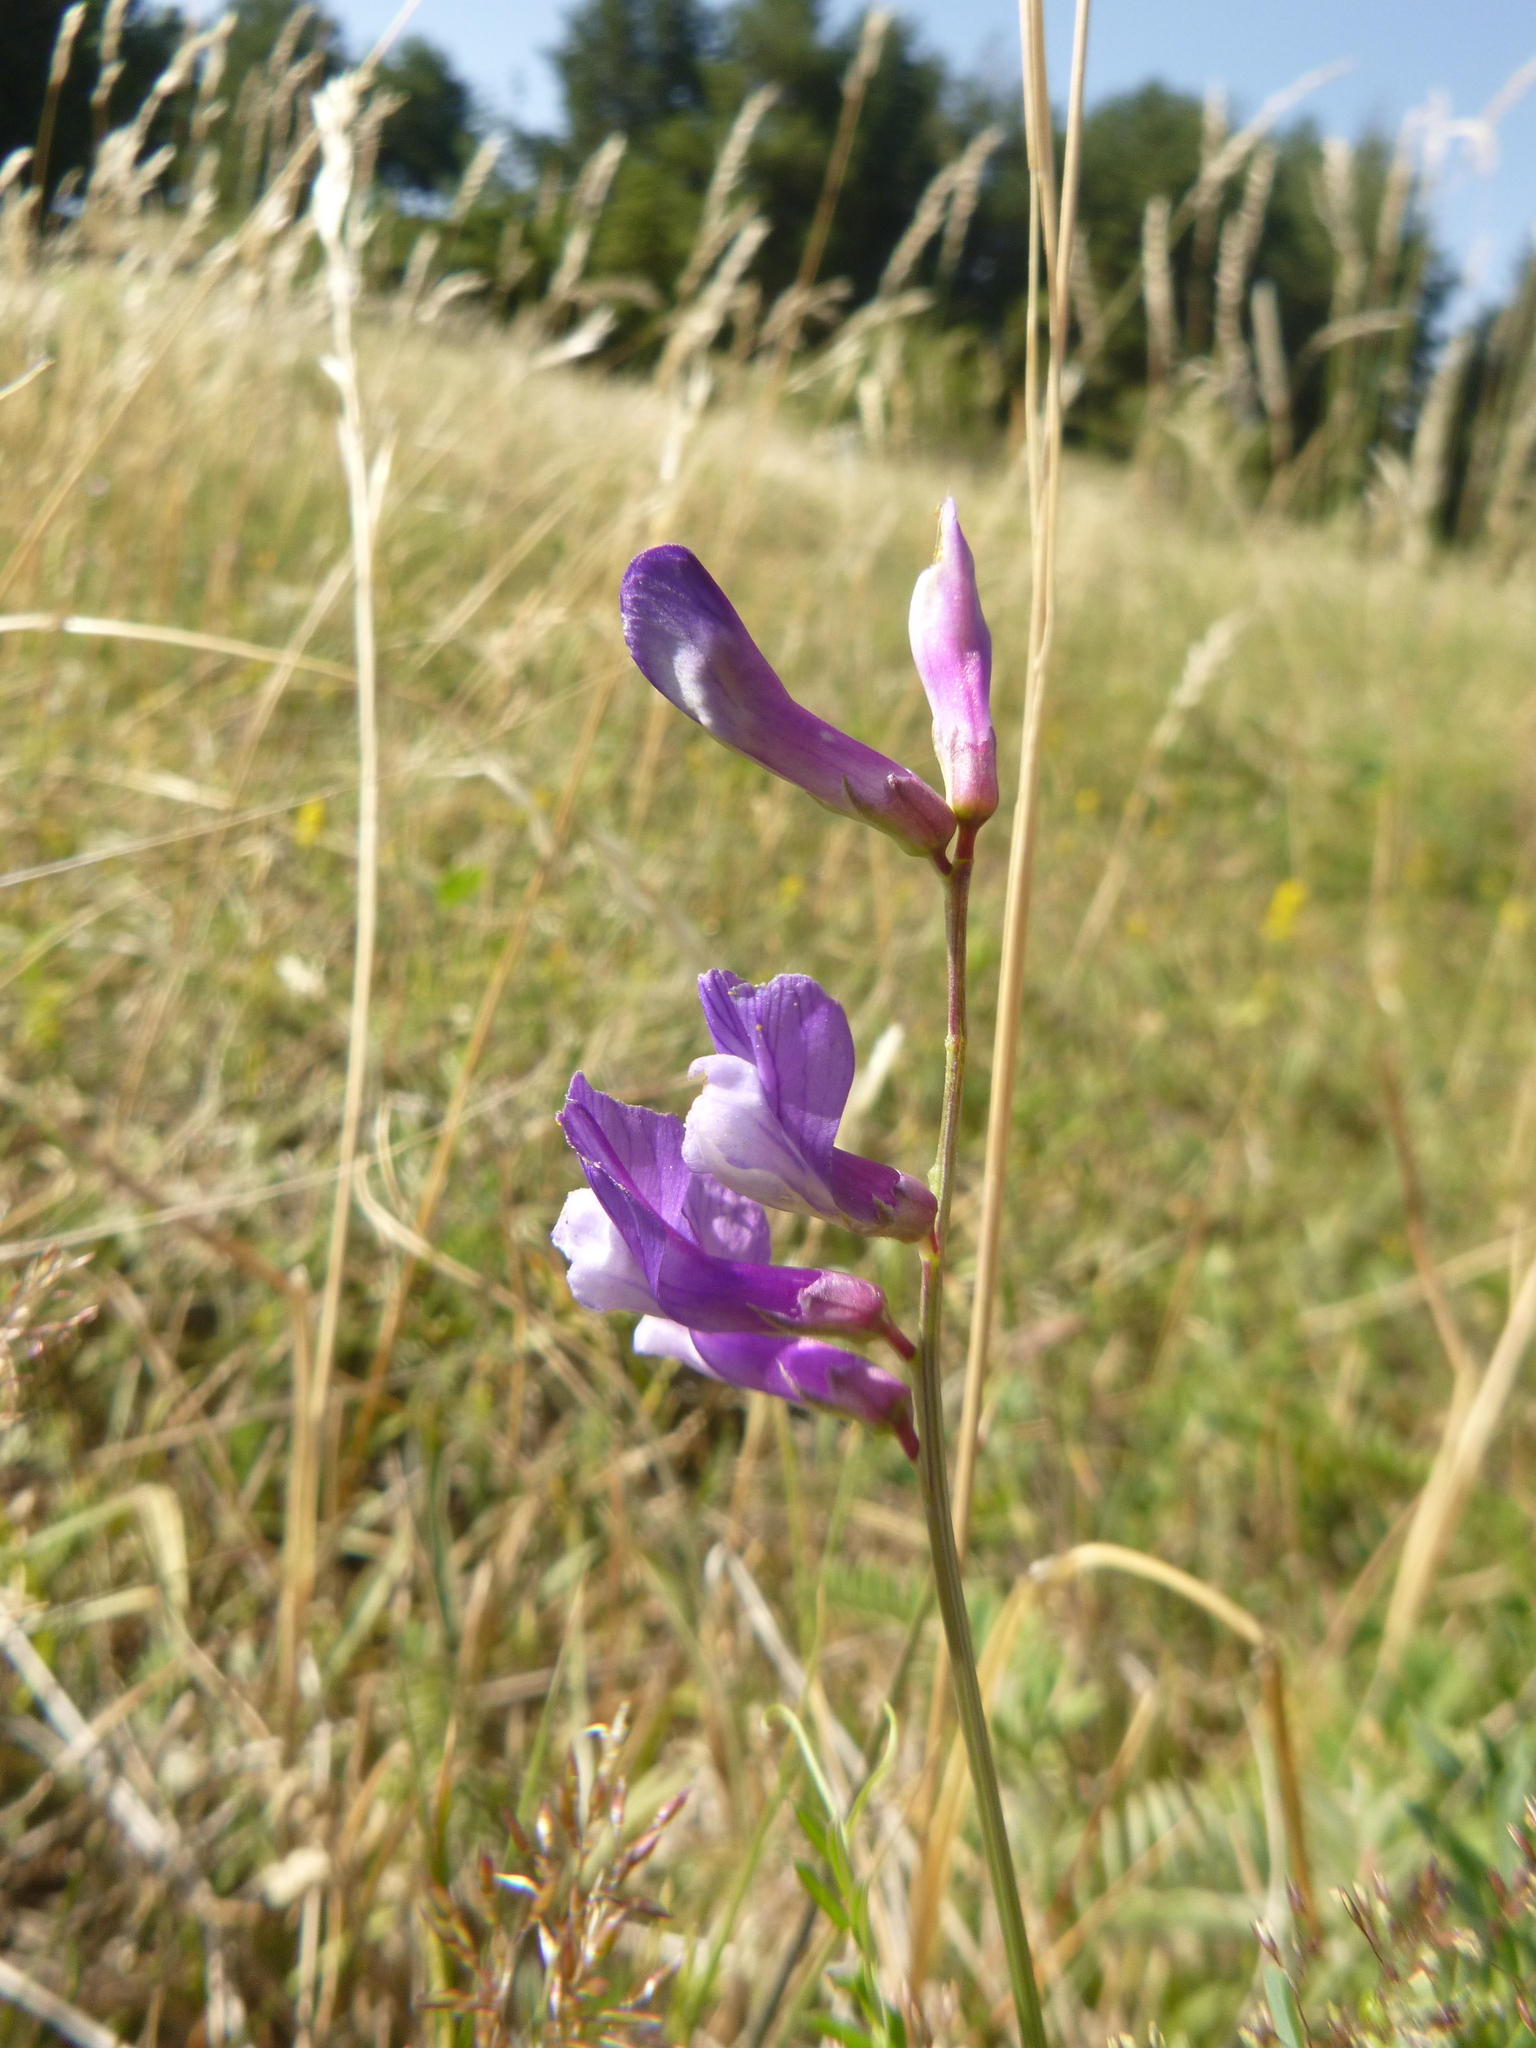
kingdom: Plantae
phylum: Tracheophyta
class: Magnoliopsida
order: Fabales
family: Fabaceae
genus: Vicia
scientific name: Vicia onobrychioides
